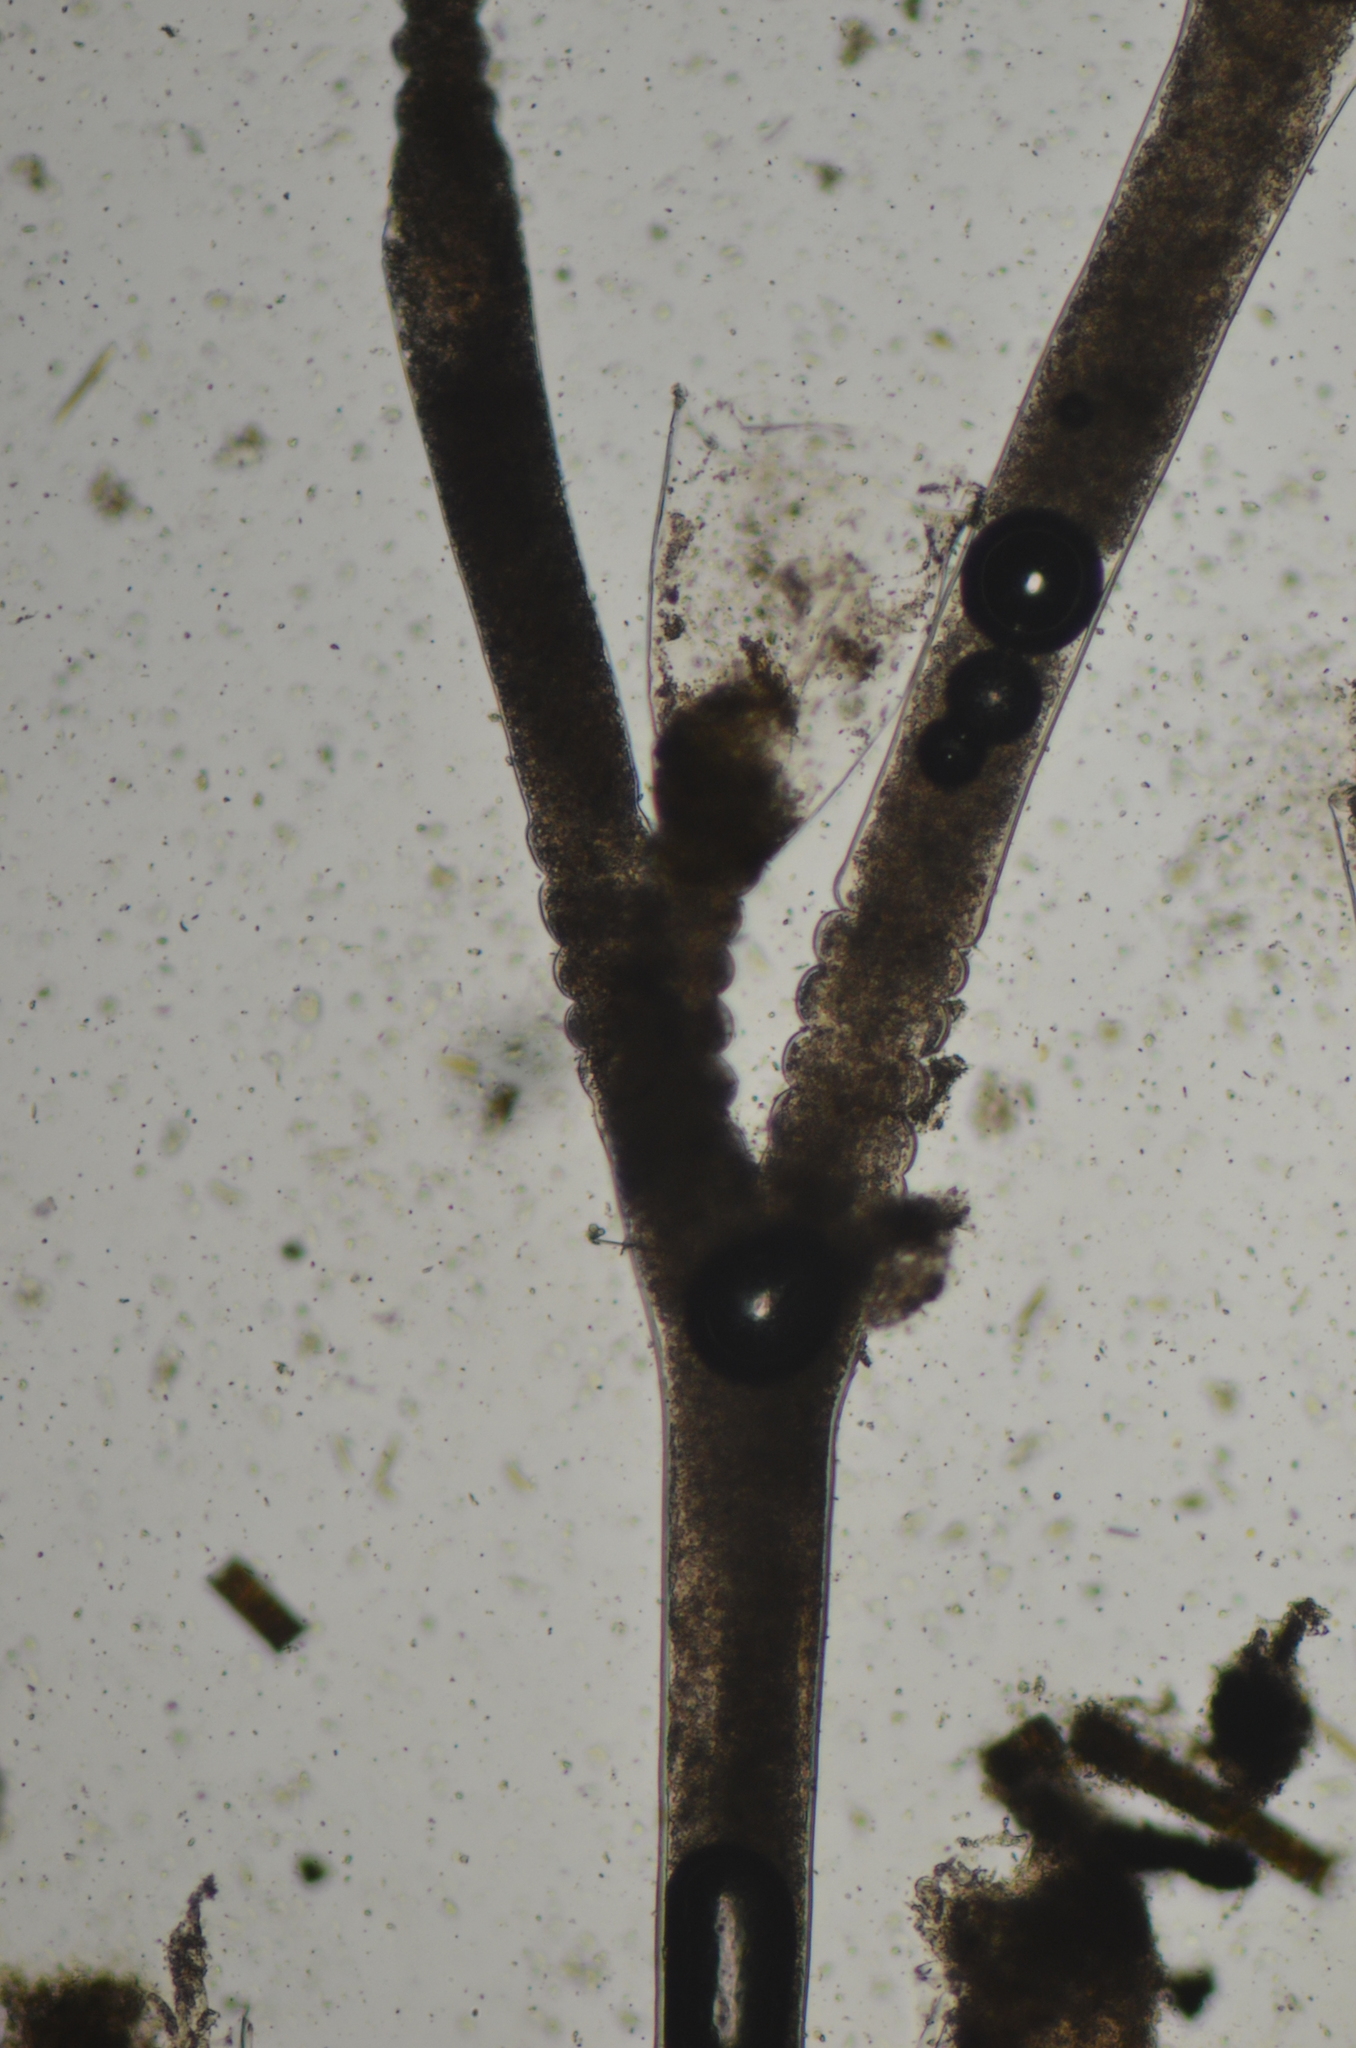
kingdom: Animalia
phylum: Cnidaria
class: Hydrozoa
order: Leptothecata
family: Campanulariidae
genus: Obelia
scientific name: Obelia dichotoma
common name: Sea thread hydroid
